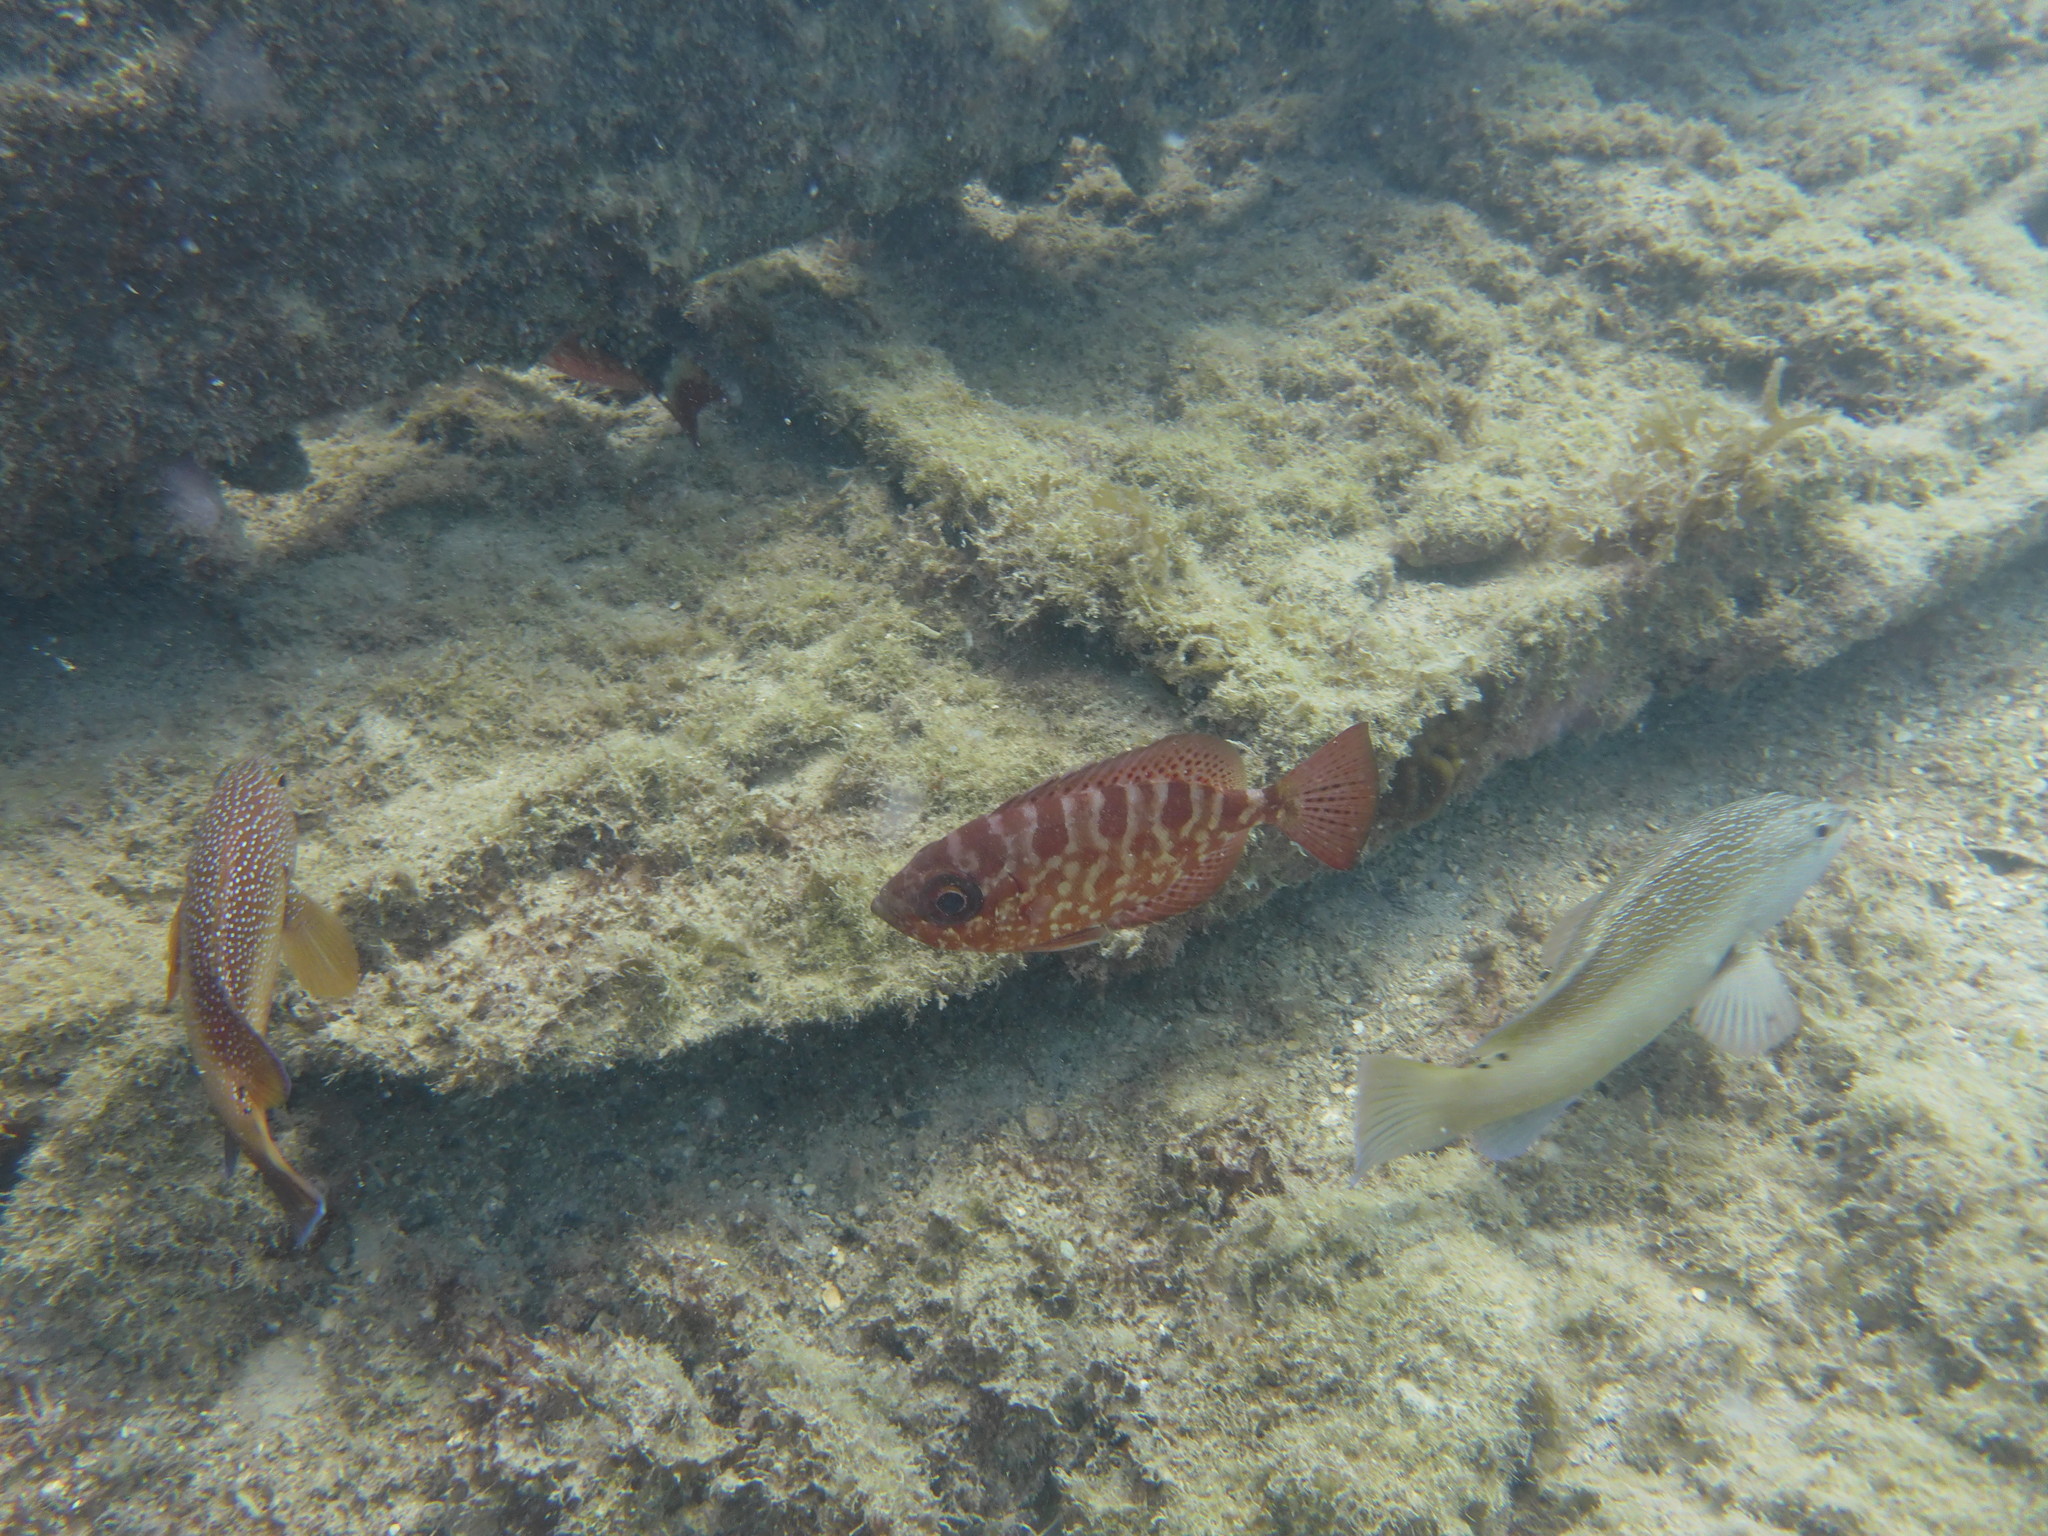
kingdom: Animalia
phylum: Chordata
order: Perciformes
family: Priacanthidae
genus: Heteropriacanthus
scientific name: Heteropriacanthus cruentatus
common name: Glasseye
